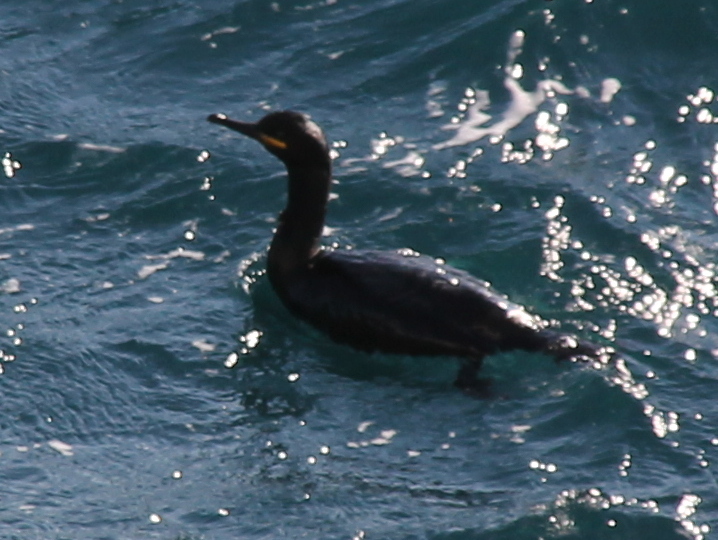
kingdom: Animalia
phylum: Chordata
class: Aves
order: Suliformes
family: Phalacrocoracidae
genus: Phalacrocorax
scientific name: Phalacrocorax aristotelis
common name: European shag
